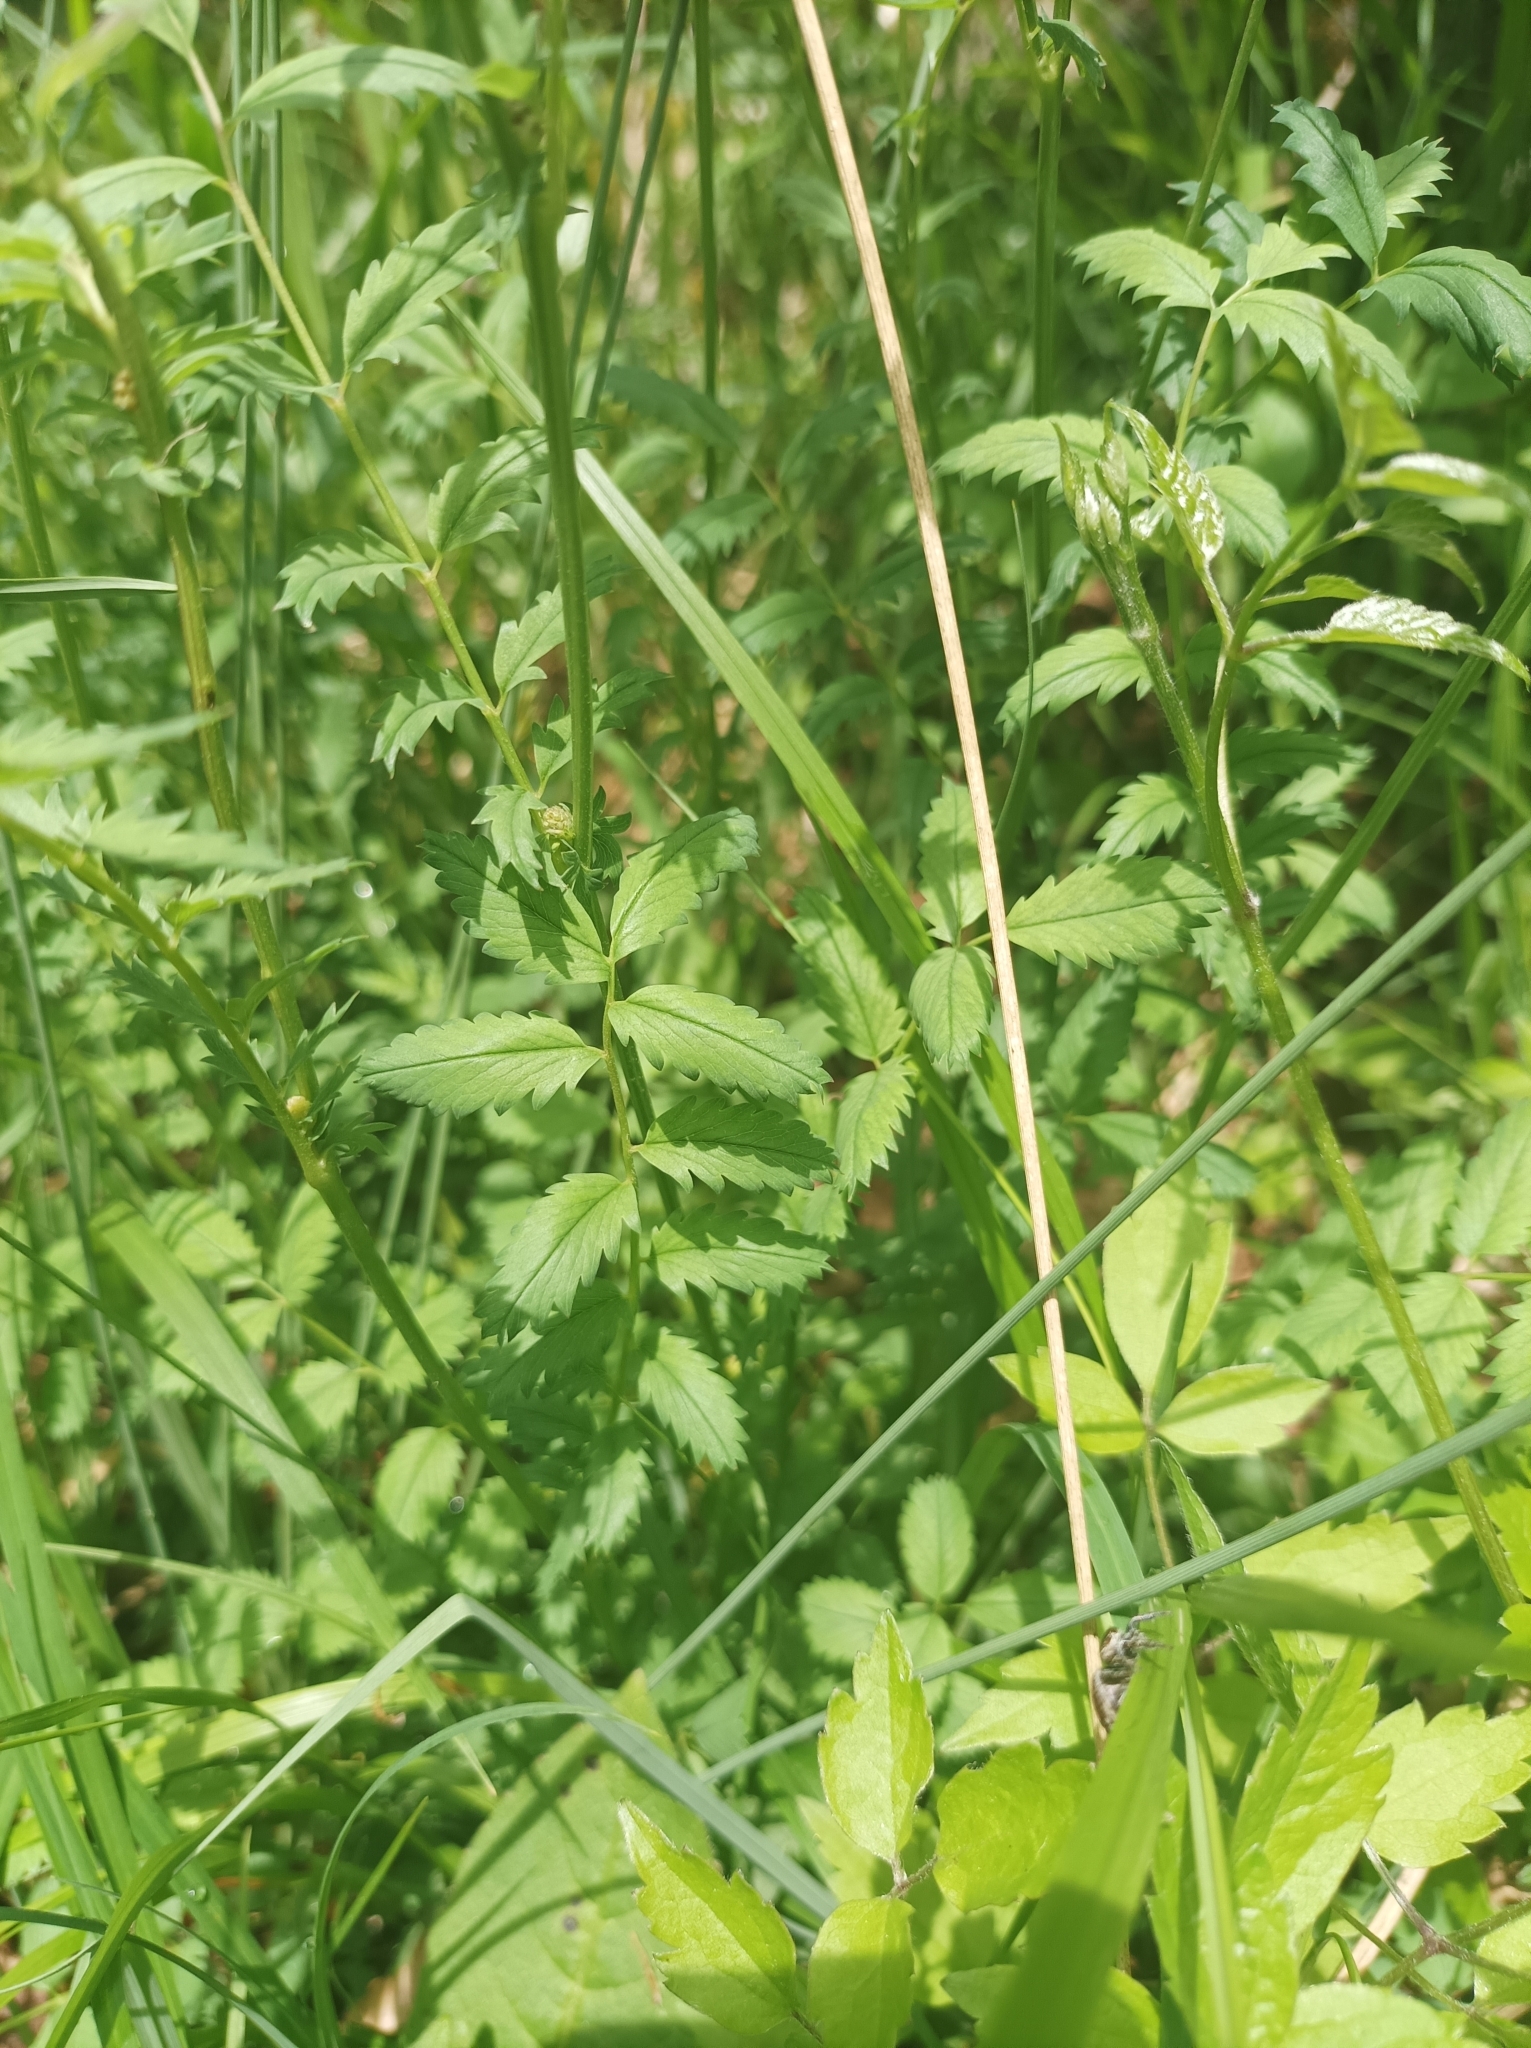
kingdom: Plantae
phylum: Tracheophyta
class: Magnoliopsida
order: Rosales
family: Rosaceae
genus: Poterium
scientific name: Poterium sanguisorba
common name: Salad burnet
